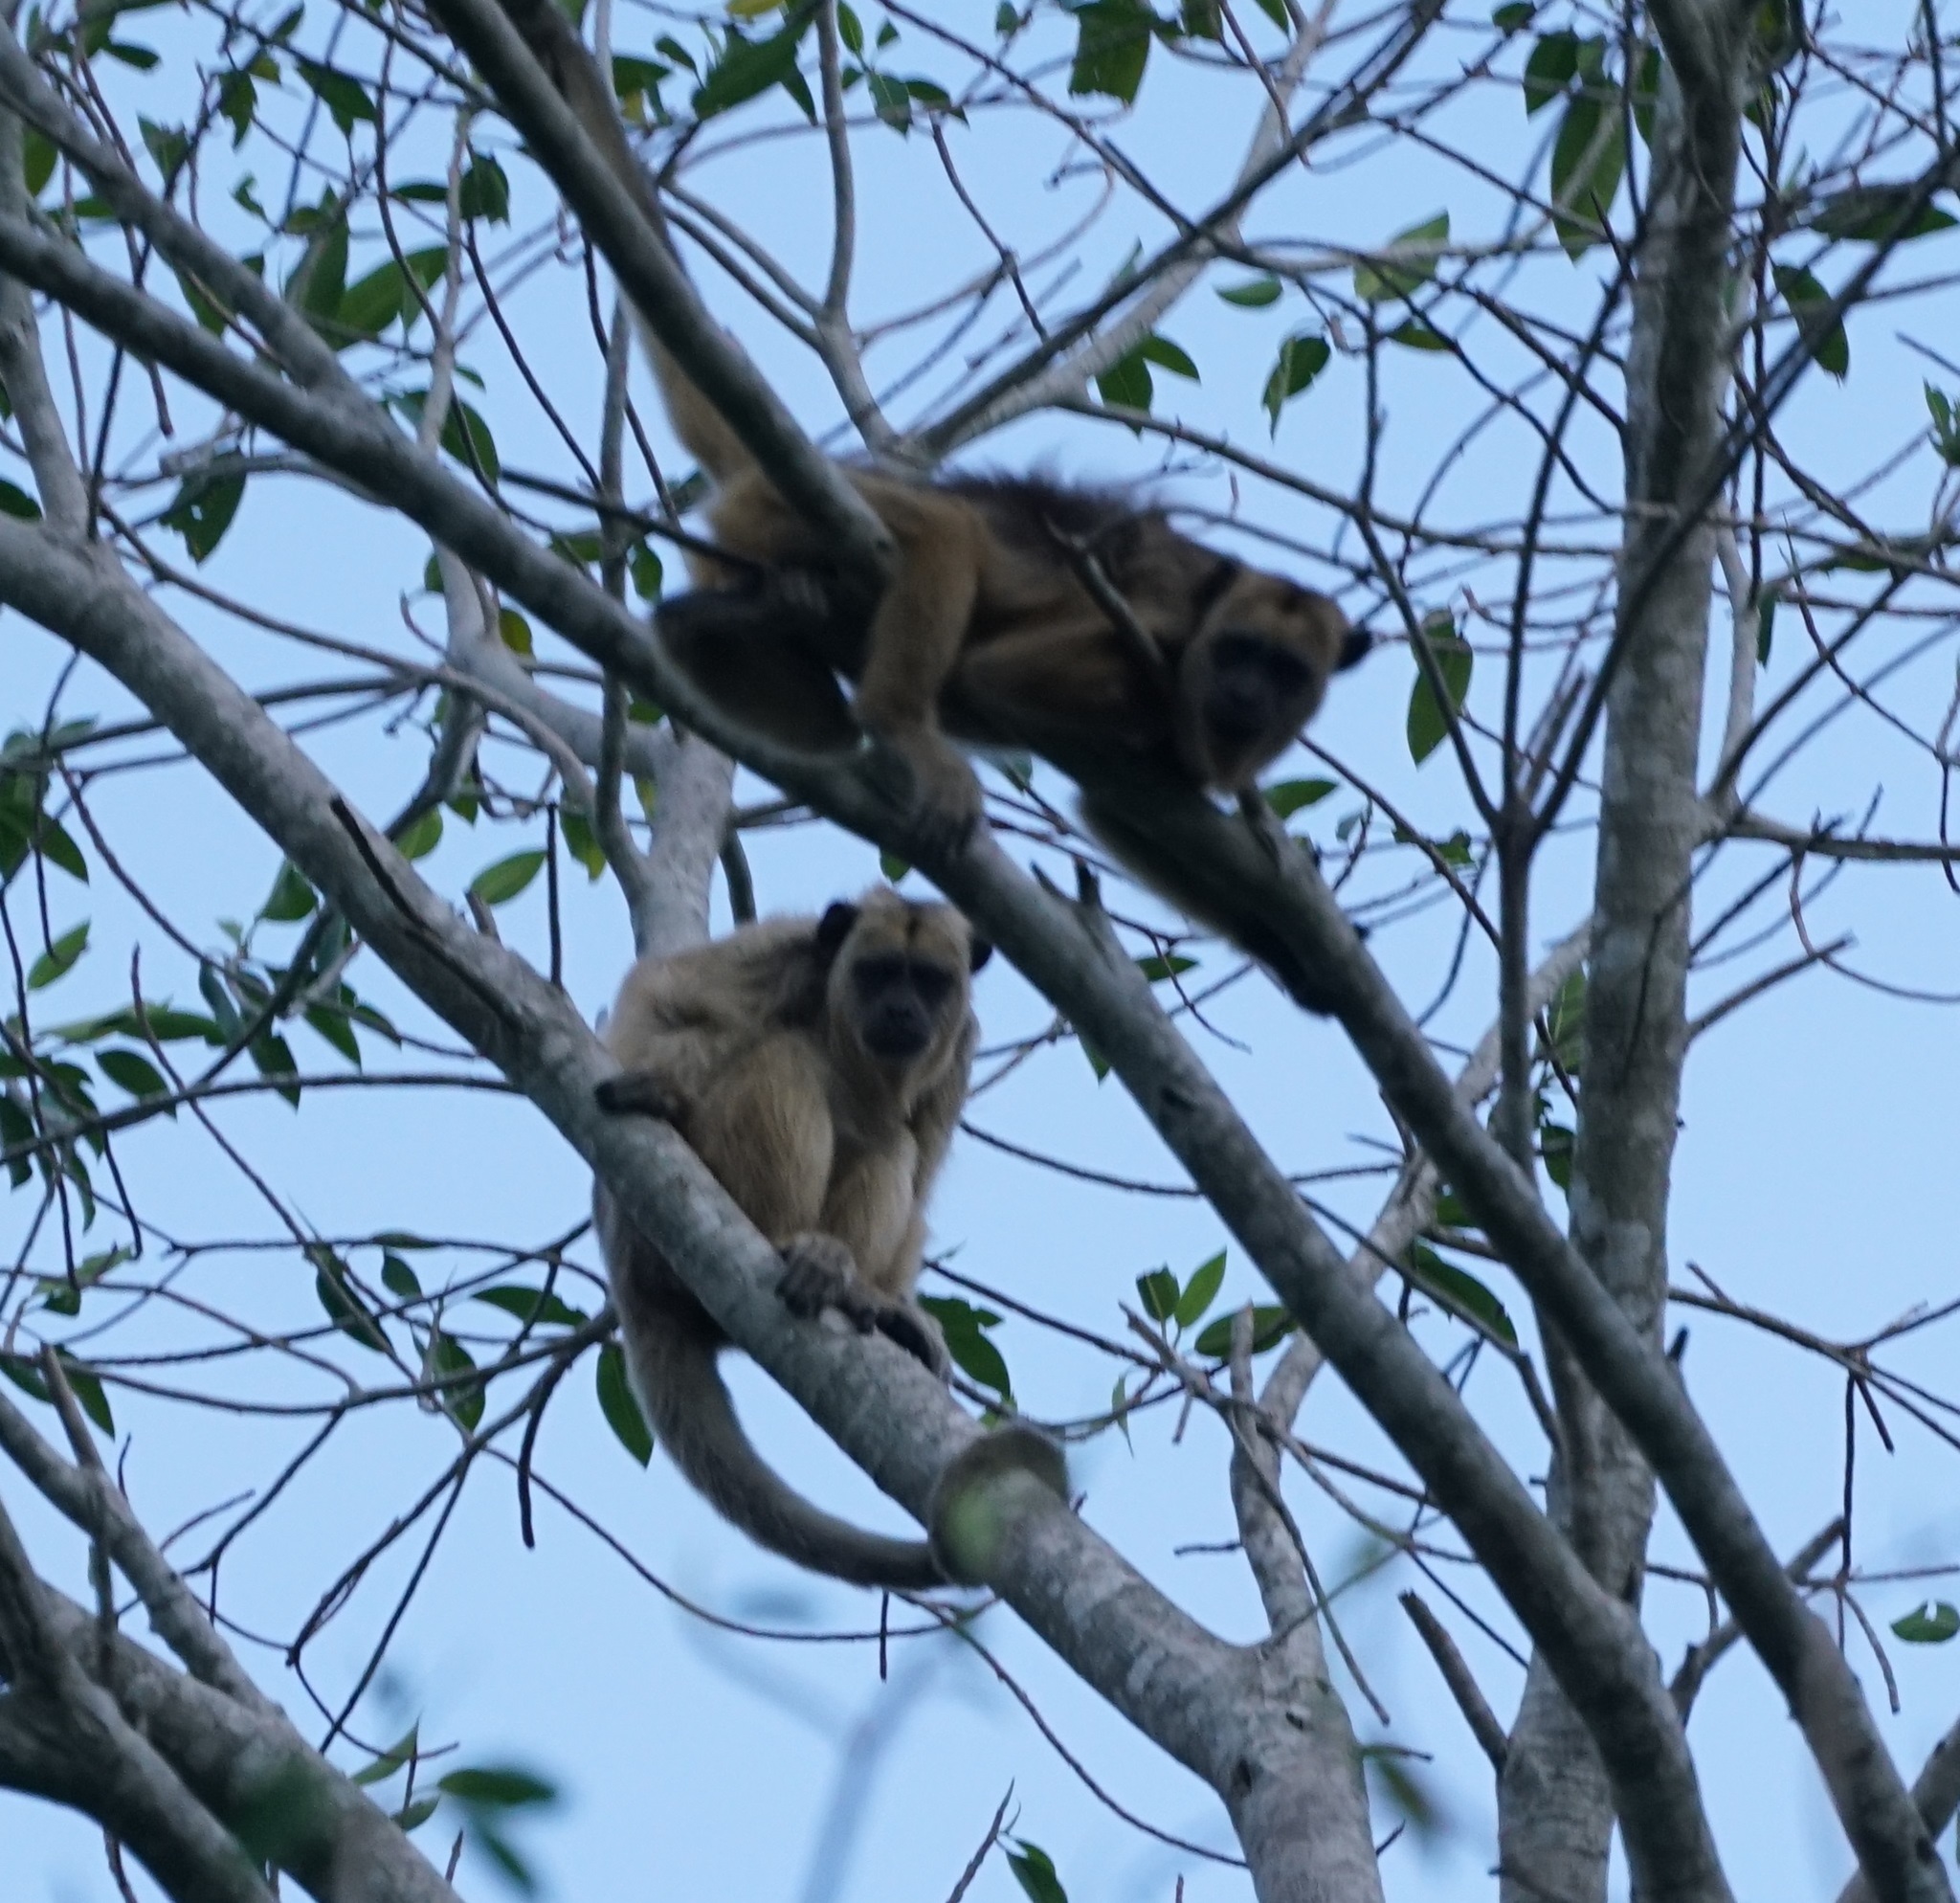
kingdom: Animalia
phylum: Chordata
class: Mammalia
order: Primates
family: Atelidae
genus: Alouatta
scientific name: Alouatta caraya
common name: Black howler
